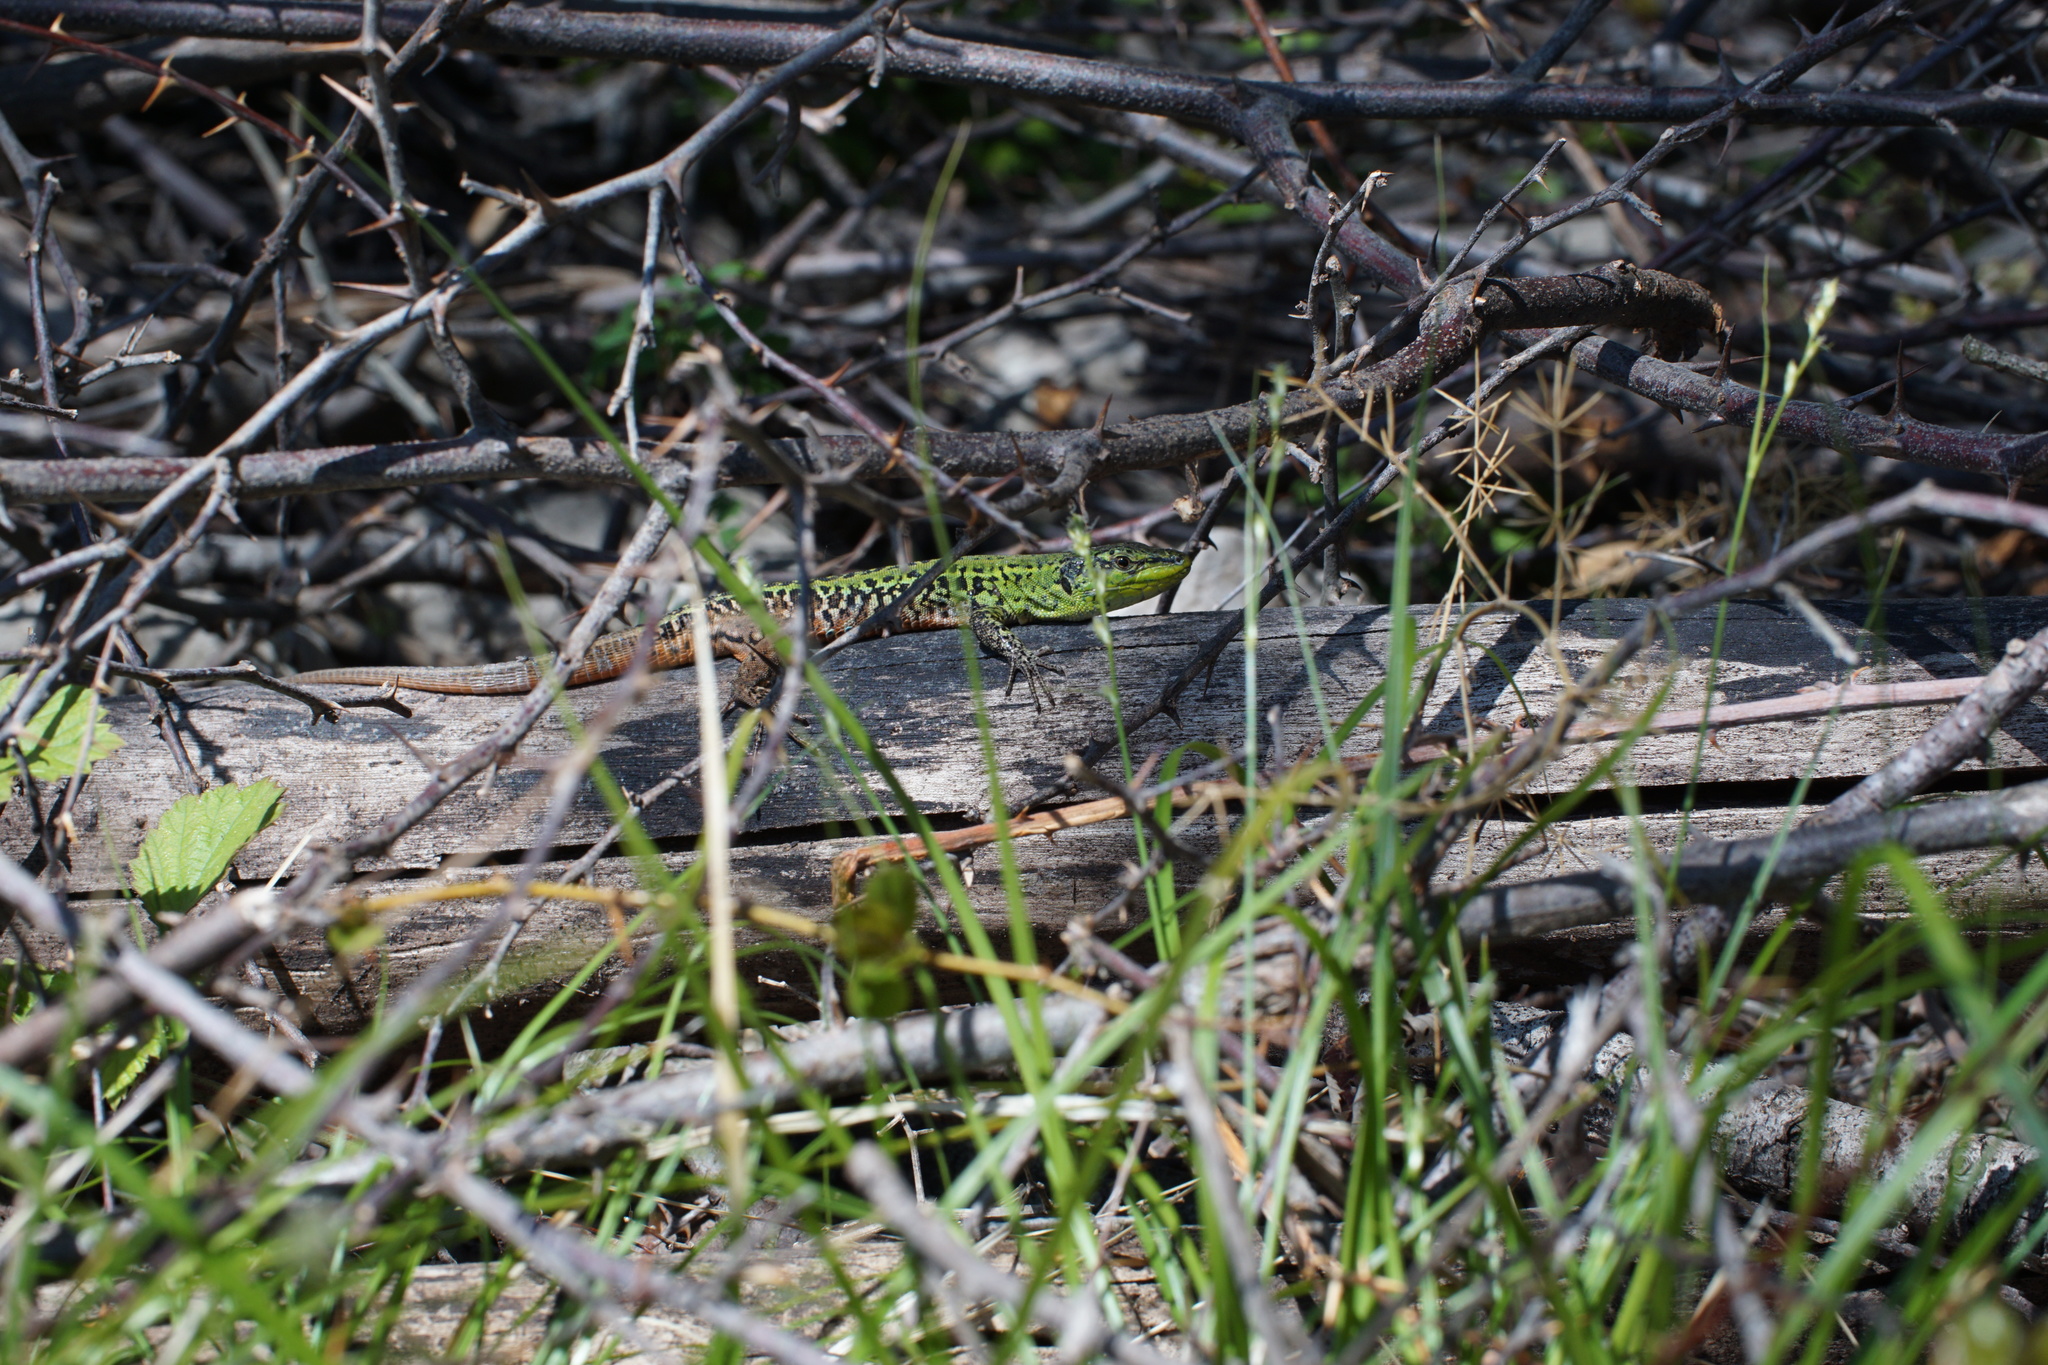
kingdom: Animalia
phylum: Chordata
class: Squamata
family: Lacertidae
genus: Podarcis
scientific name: Podarcis siculus
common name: Italian wall lizard
